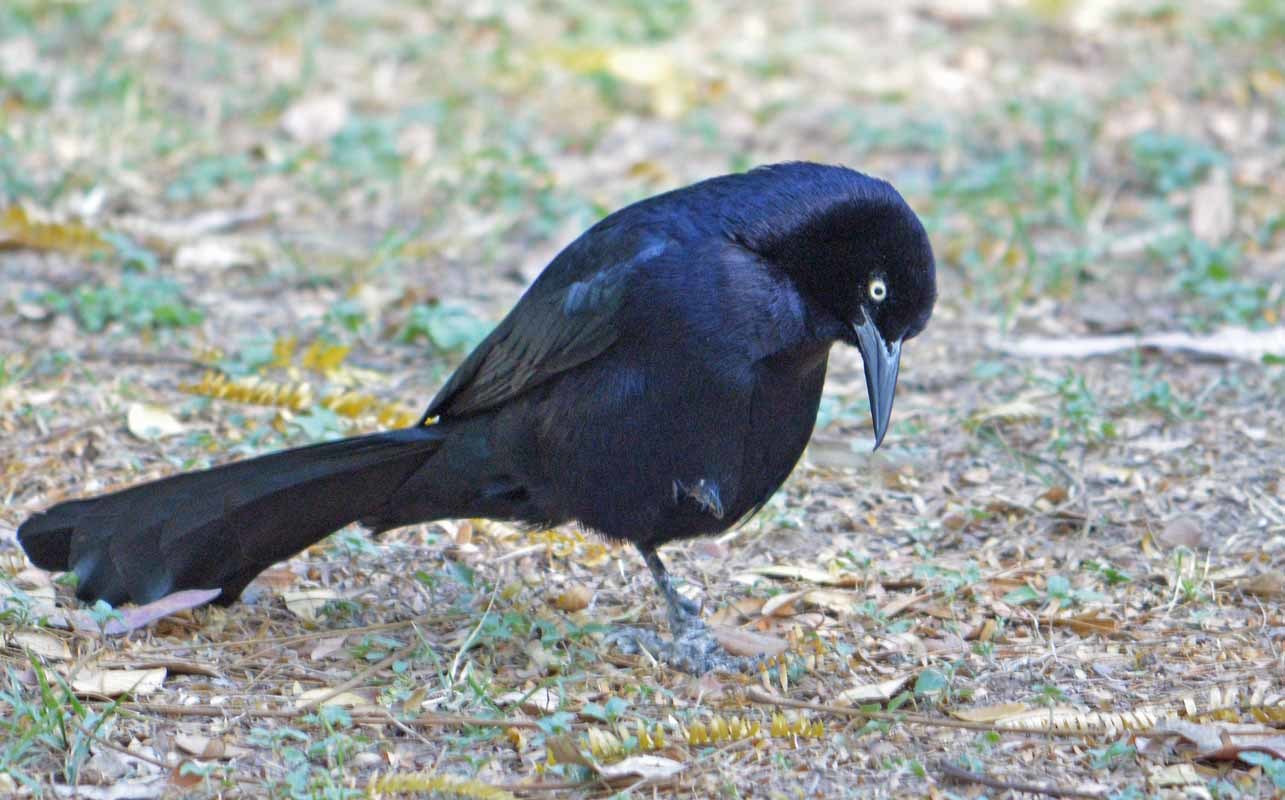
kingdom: Animalia
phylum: Chordata
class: Aves
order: Passeriformes
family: Icteridae
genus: Quiscalus
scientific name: Quiscalus mexicanus
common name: Great-tailed grackle
